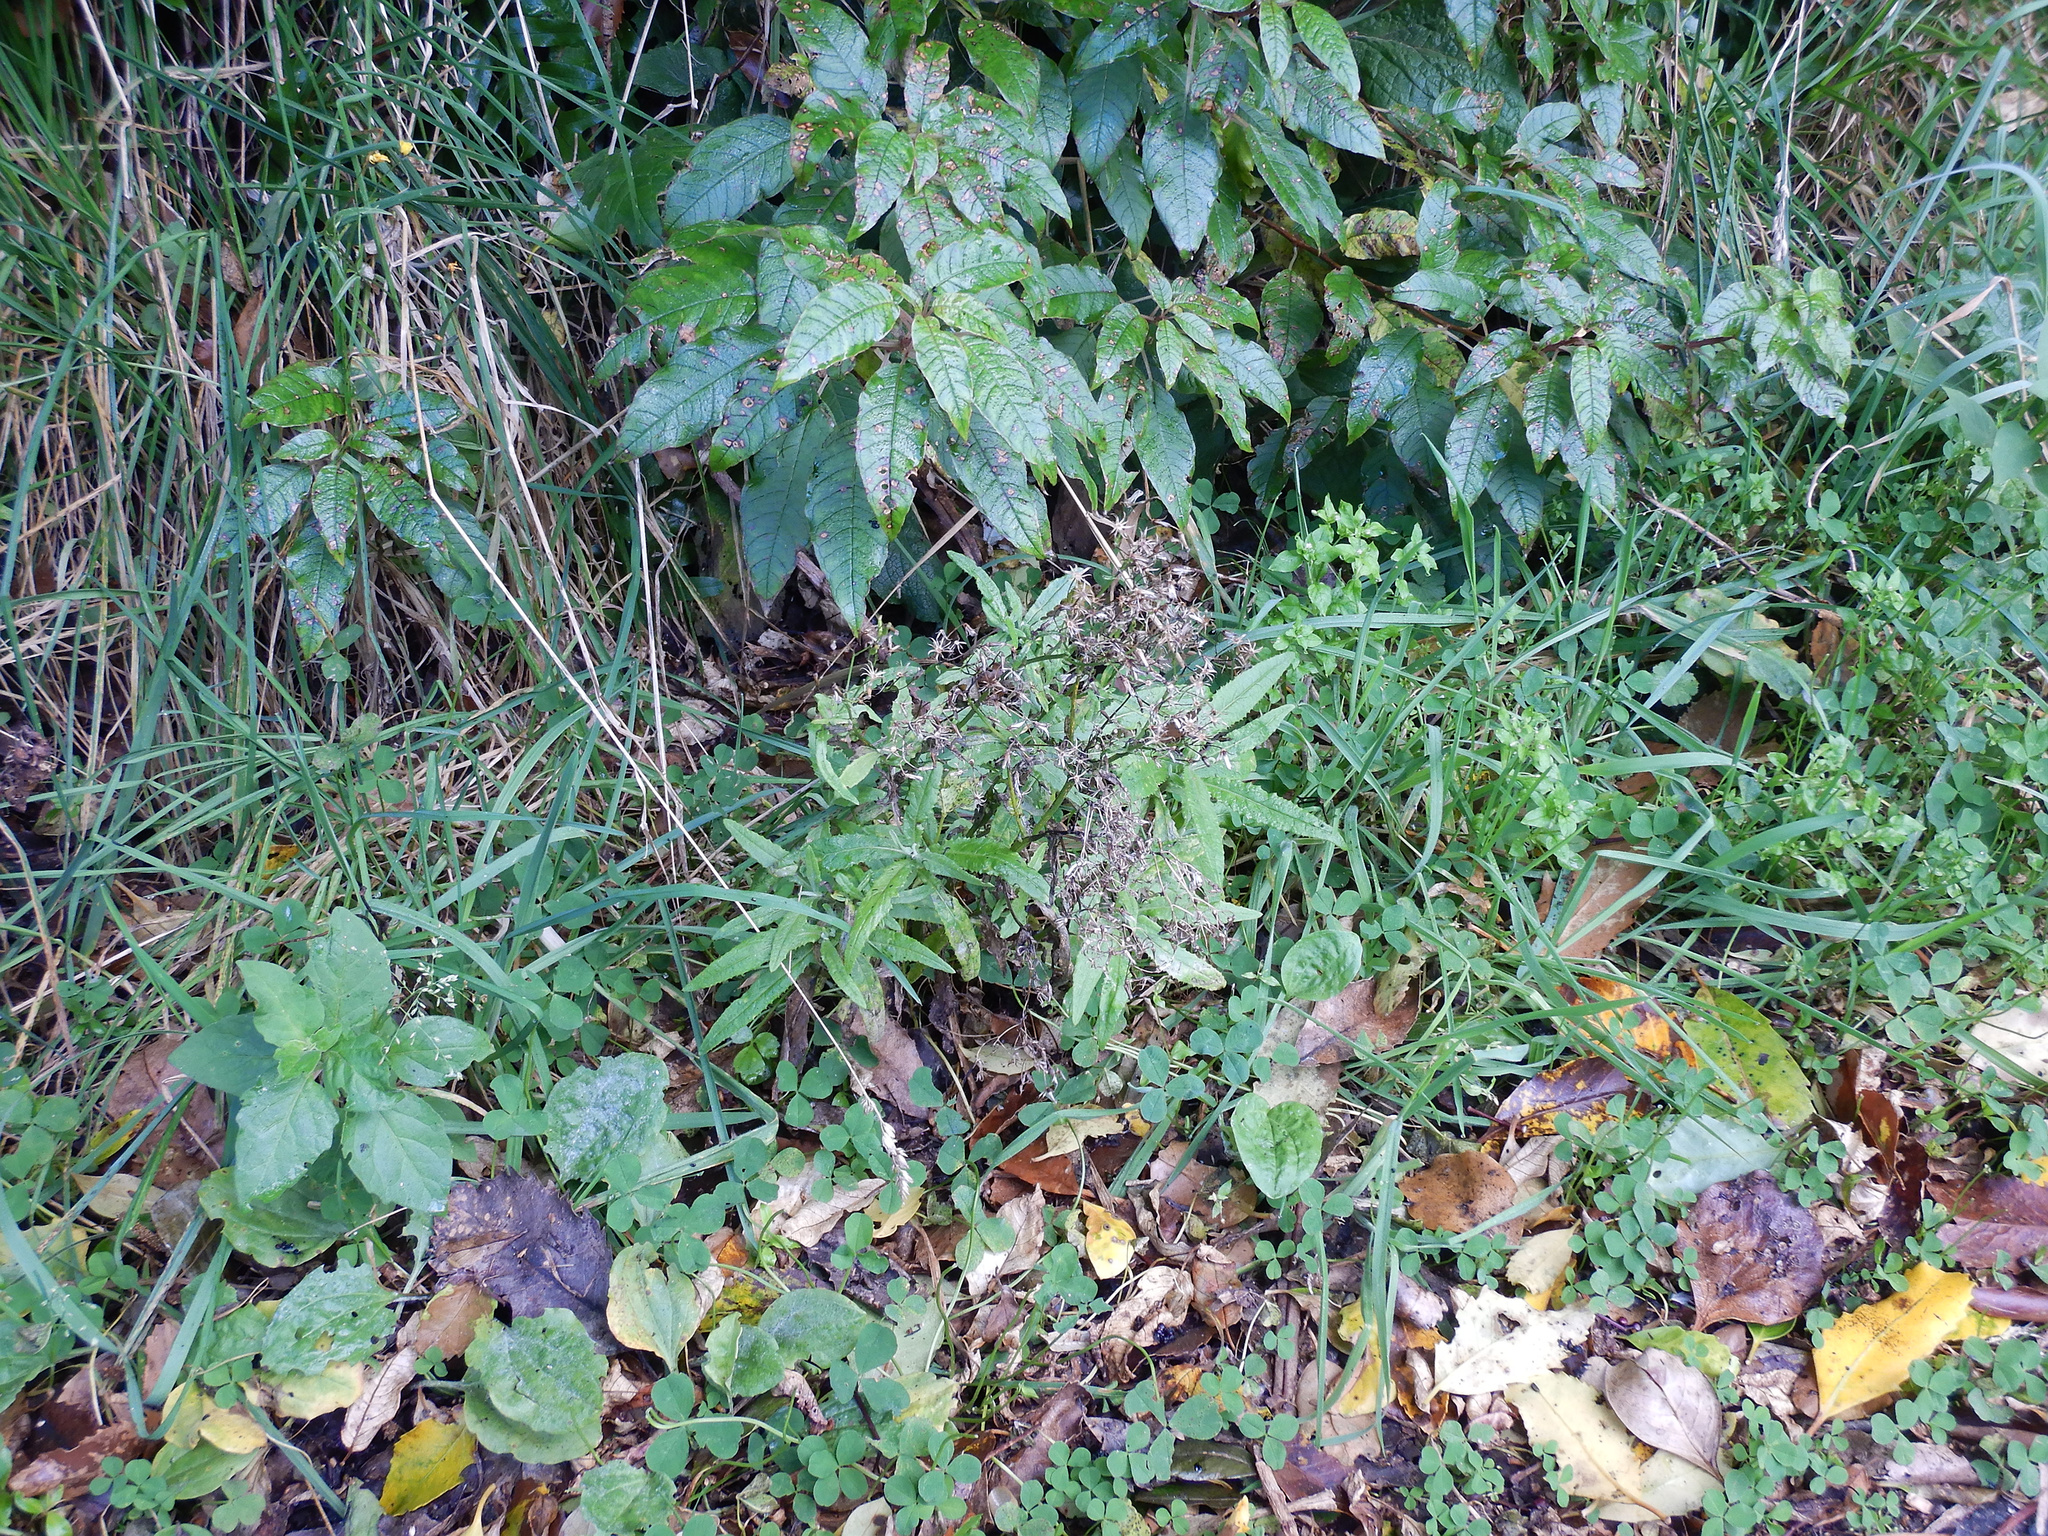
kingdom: Plantae
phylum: Tracheophyta
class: Magnoliopsida
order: Asterales
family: Asteraceae
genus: Senecio
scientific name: Senecio minimus
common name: Toothed fireweed
